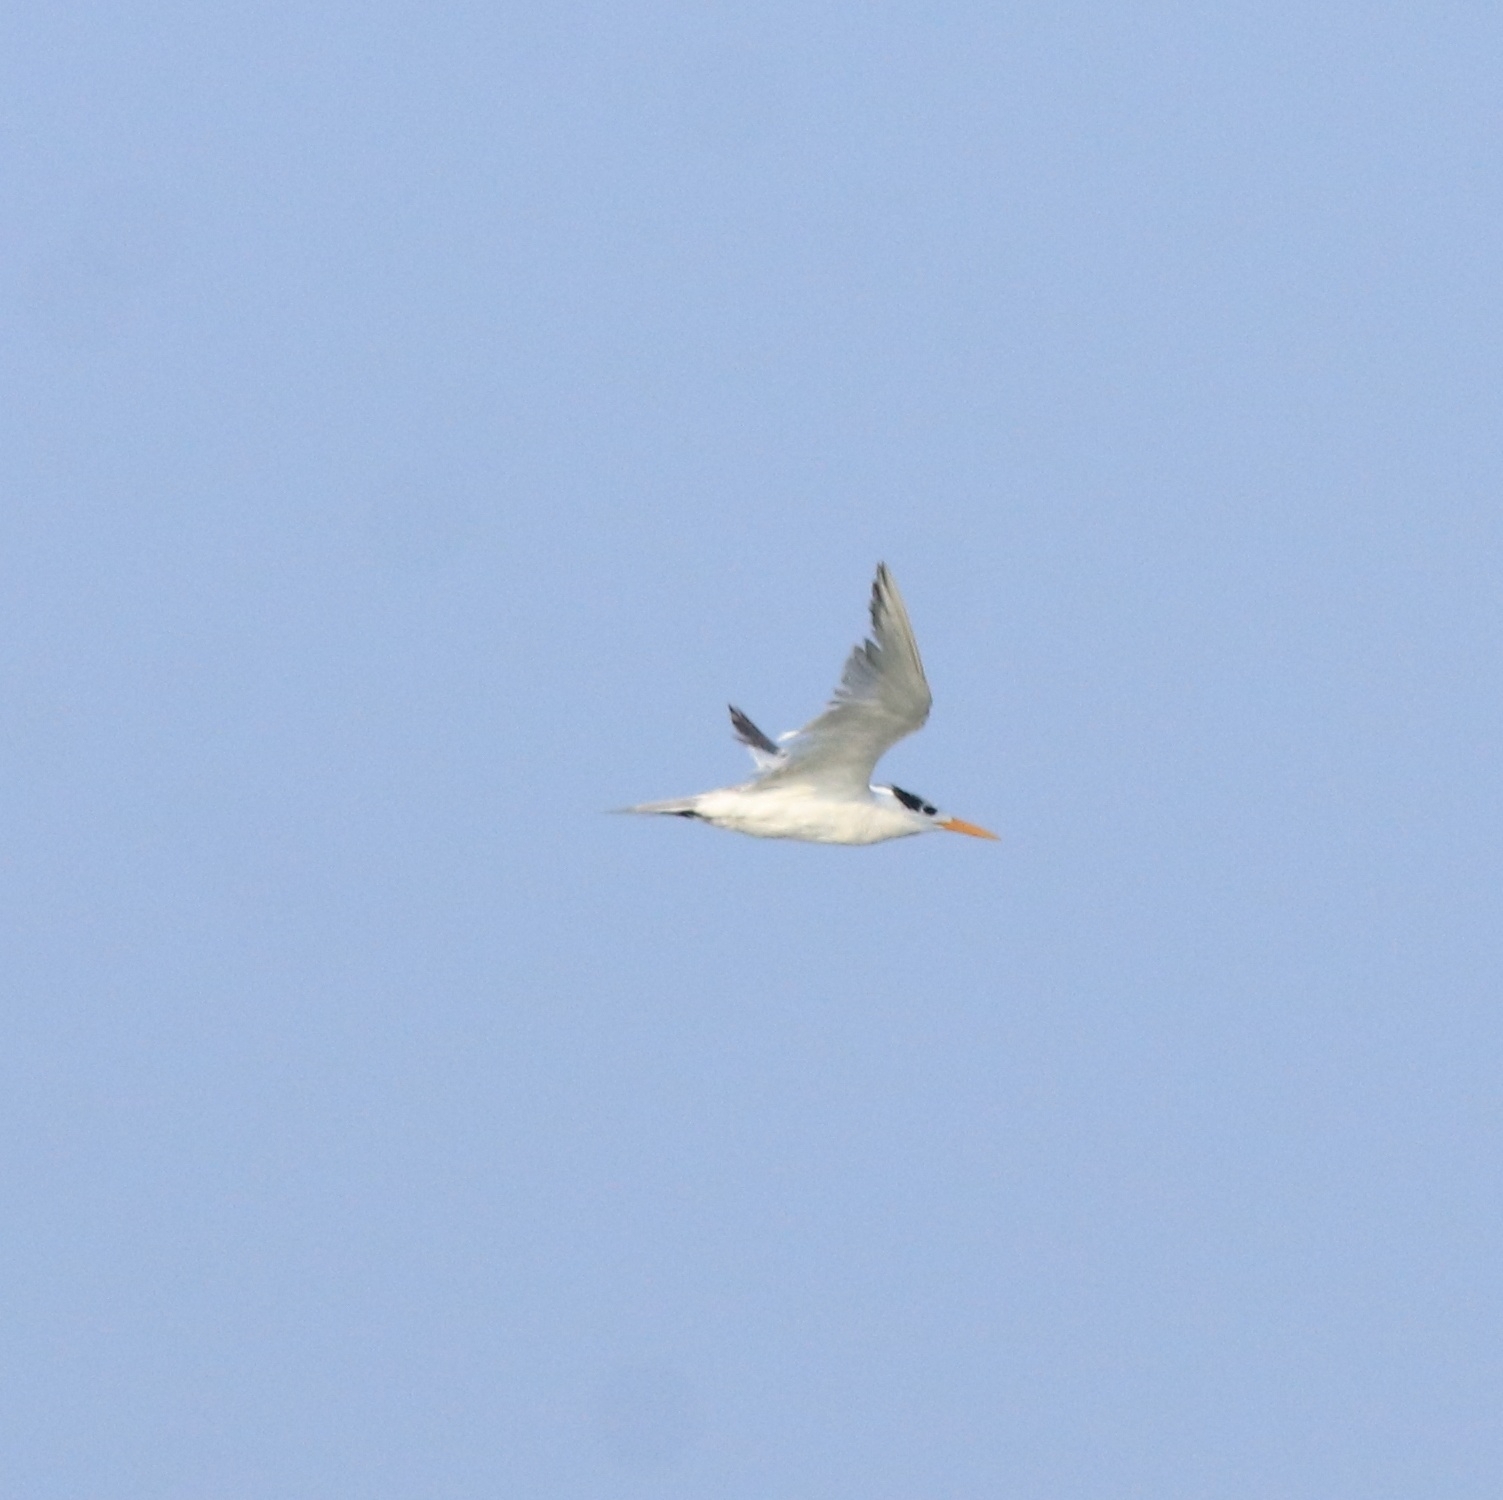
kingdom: Animalia
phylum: Chordata
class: Aves
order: Charadriiformes
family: Laridae
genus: Thalasseus
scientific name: Thalasseus bengalensis
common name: Lesser crested tern
